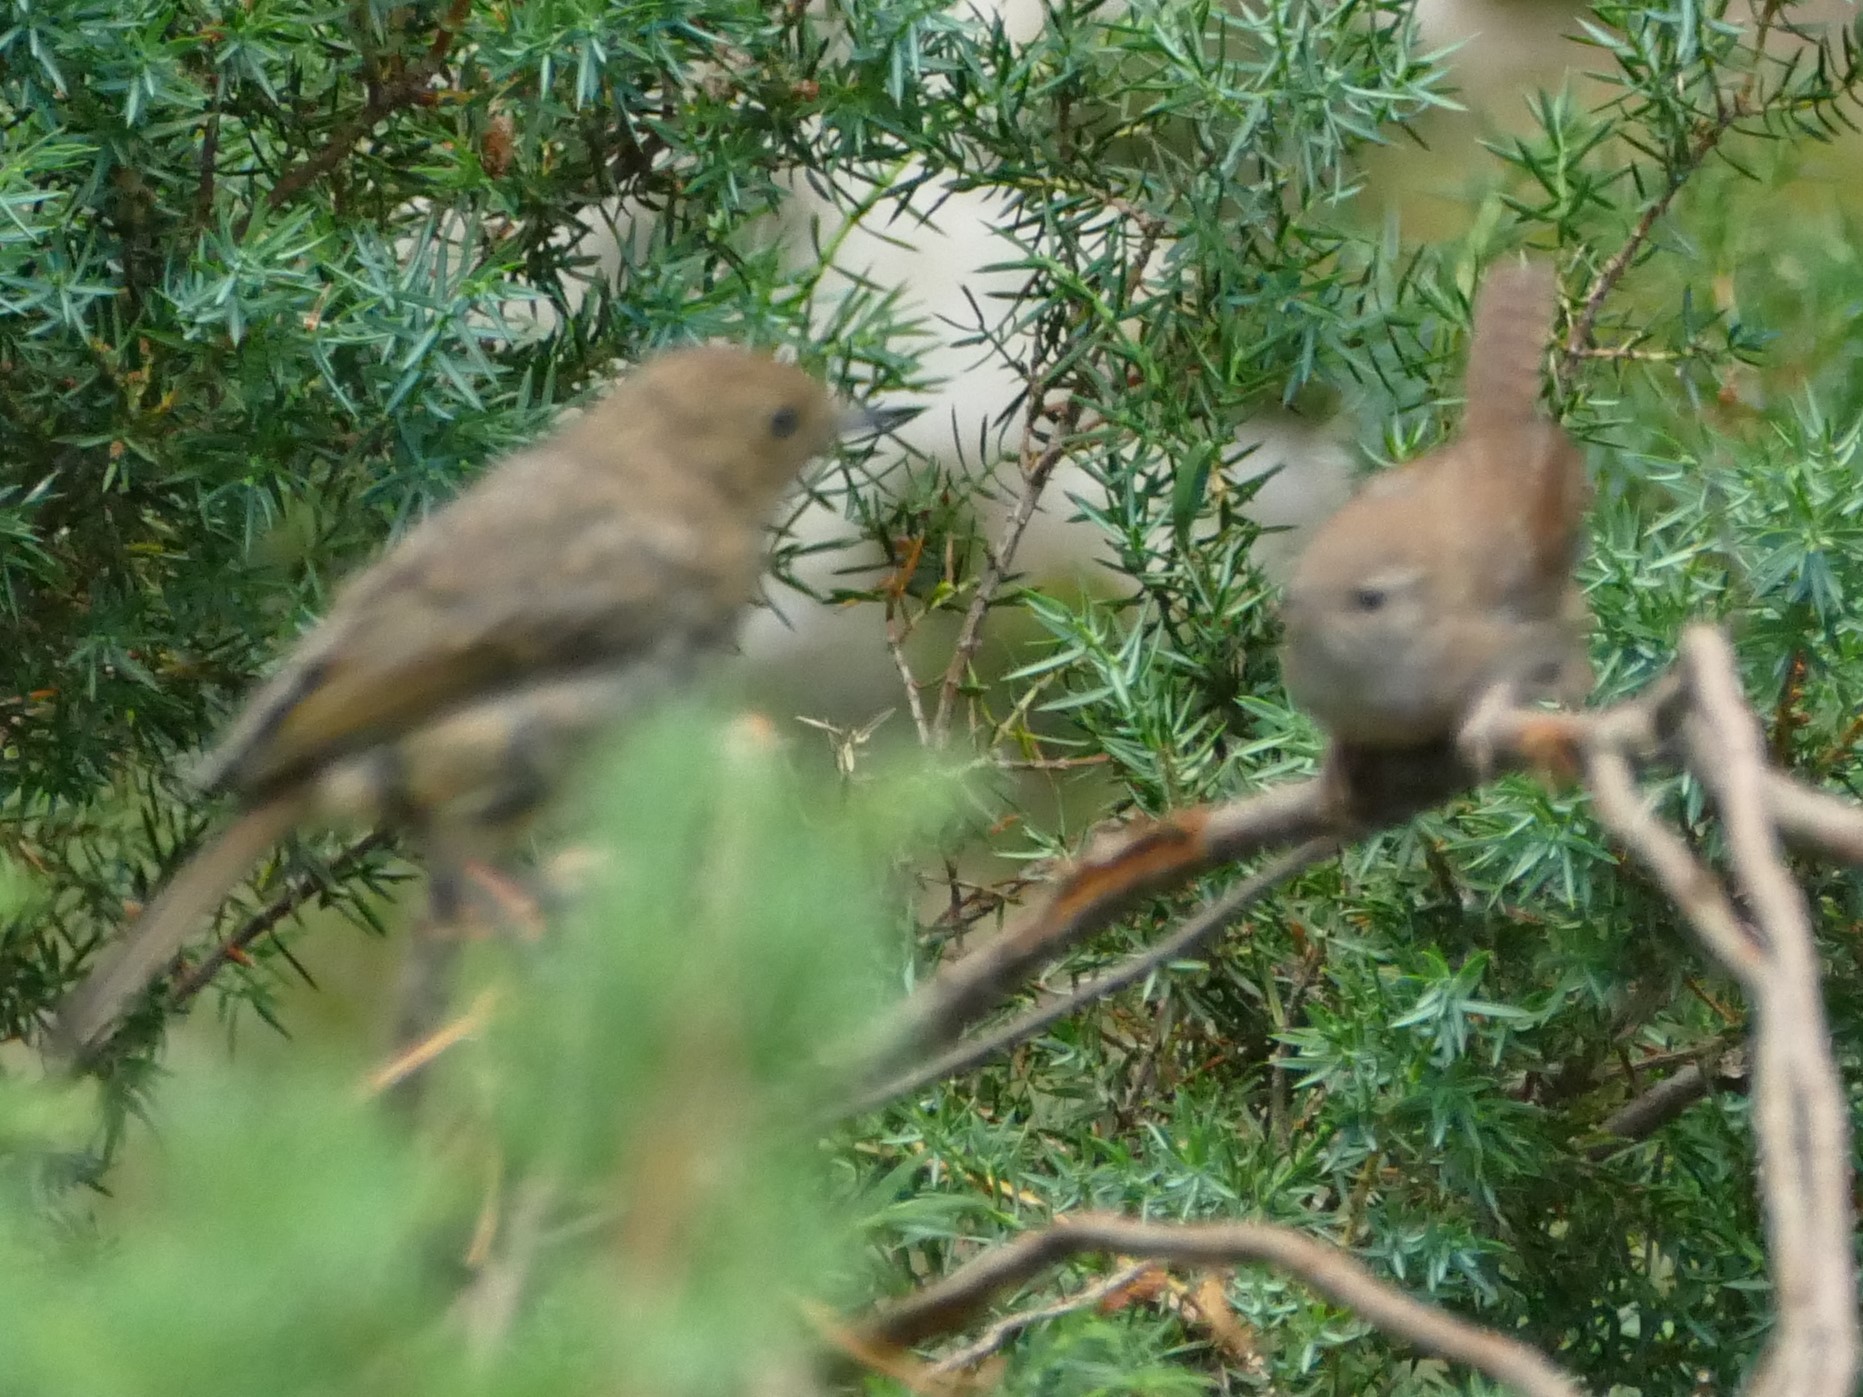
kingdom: Animalia
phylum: Chordata
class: Aves
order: Passeriformes
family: Troglodytidae
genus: Troglodytes
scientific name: Troglodytes troglodytes
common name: Eurasian wren
